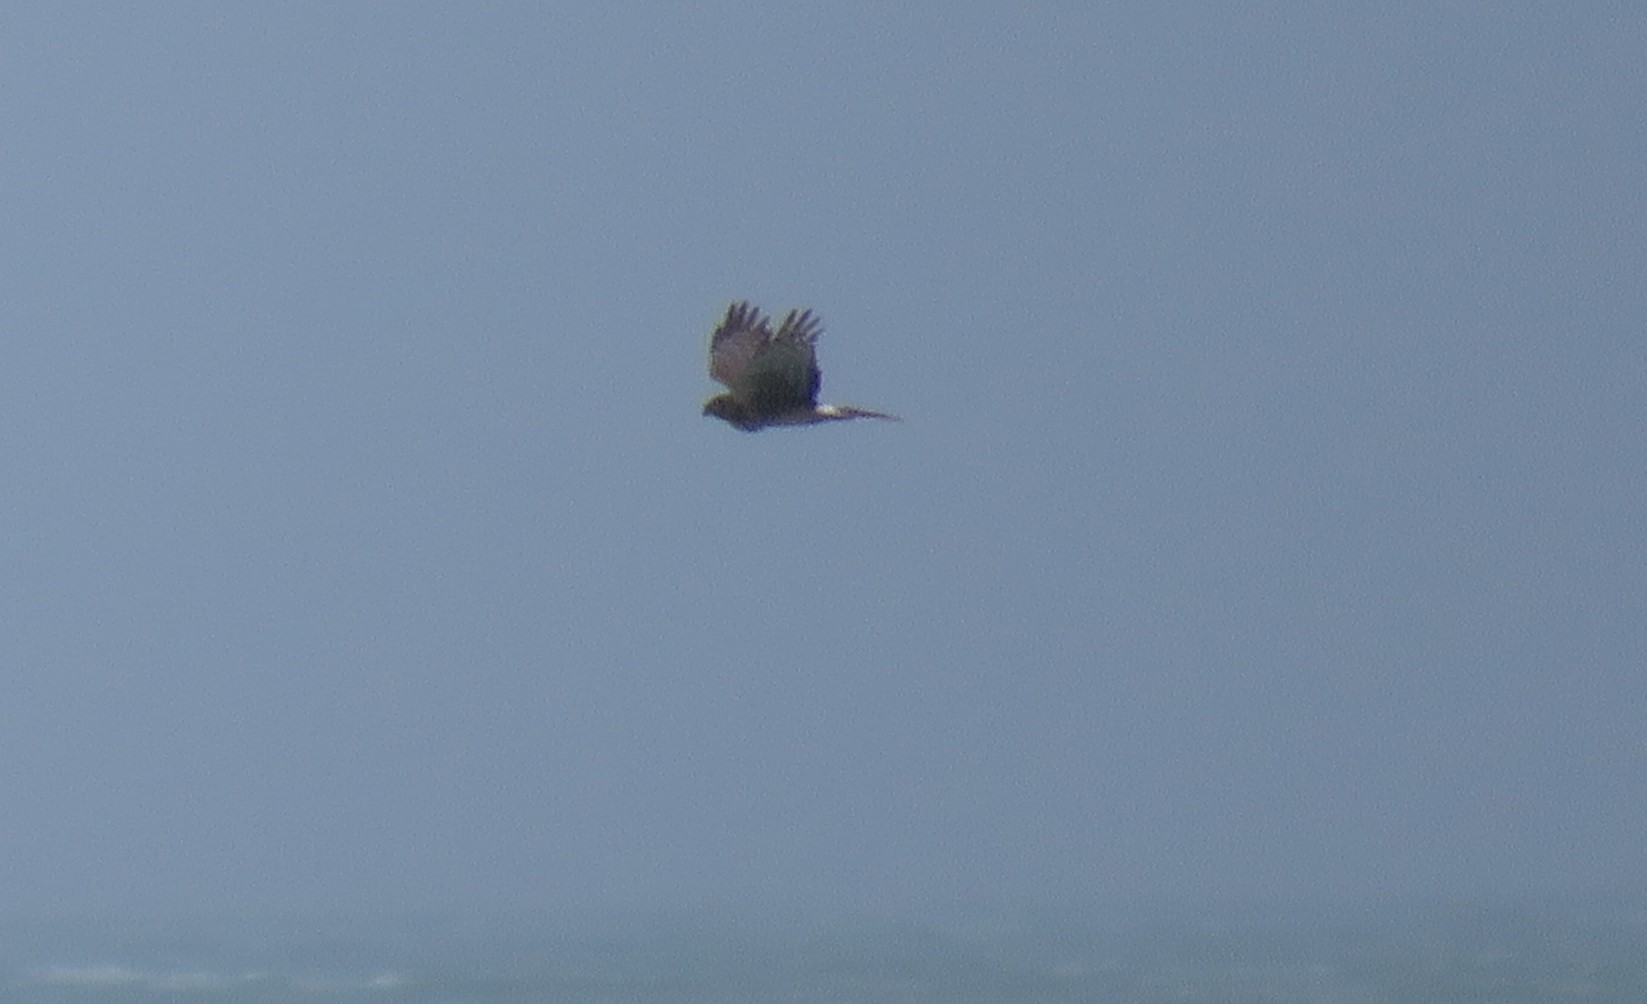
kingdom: Animalia
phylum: Chordata
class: Aves
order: Accipitriformes
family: Accipitridae
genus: Circus
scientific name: Circus cyaneus
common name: Hen harrier
